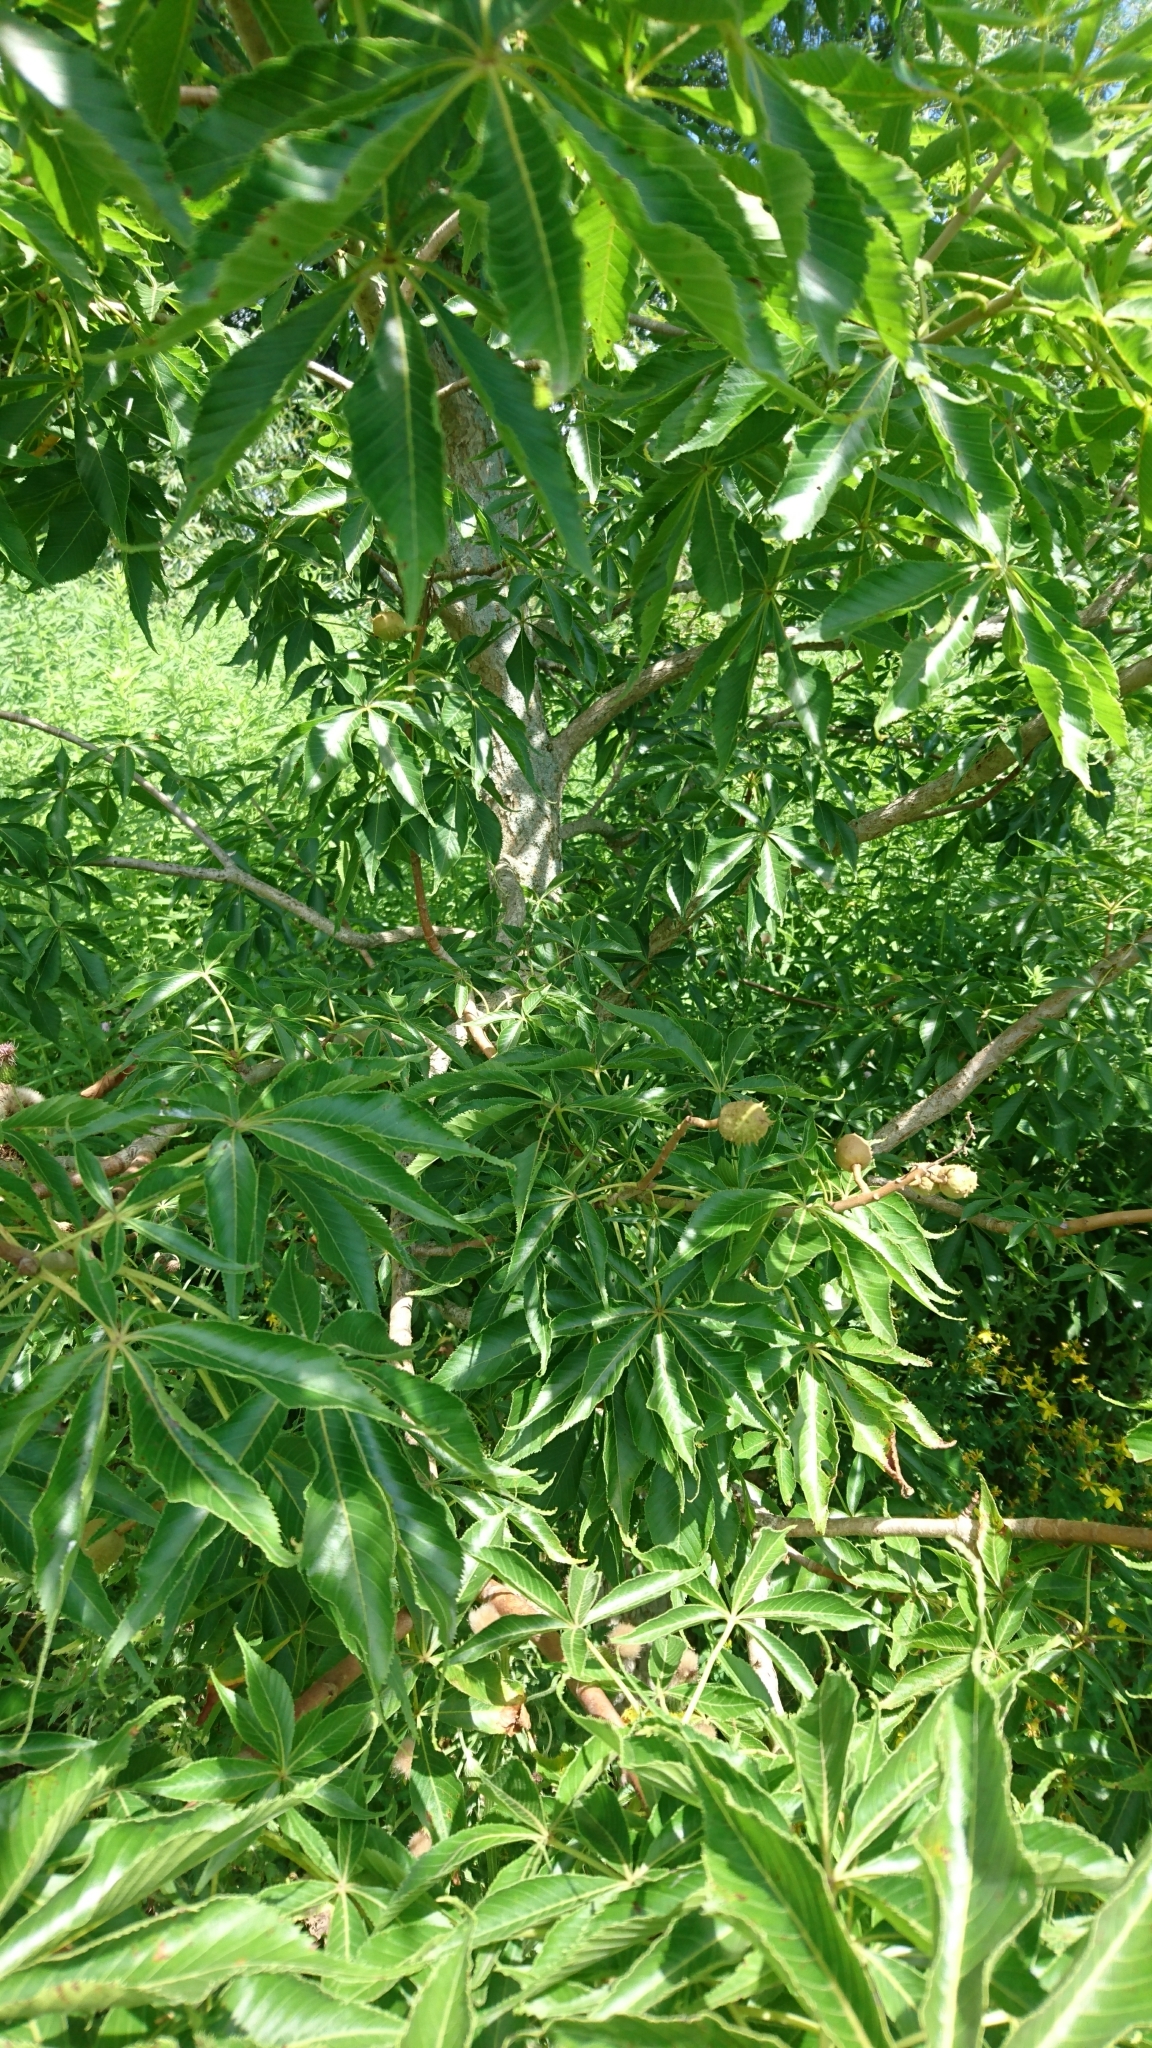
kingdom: Plantae
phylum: Tracheophyta
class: Magnoliopsida
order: Sapindales
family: Sapindaceae
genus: Aesculus
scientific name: Aesculus glabra
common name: Ohio buckeye
